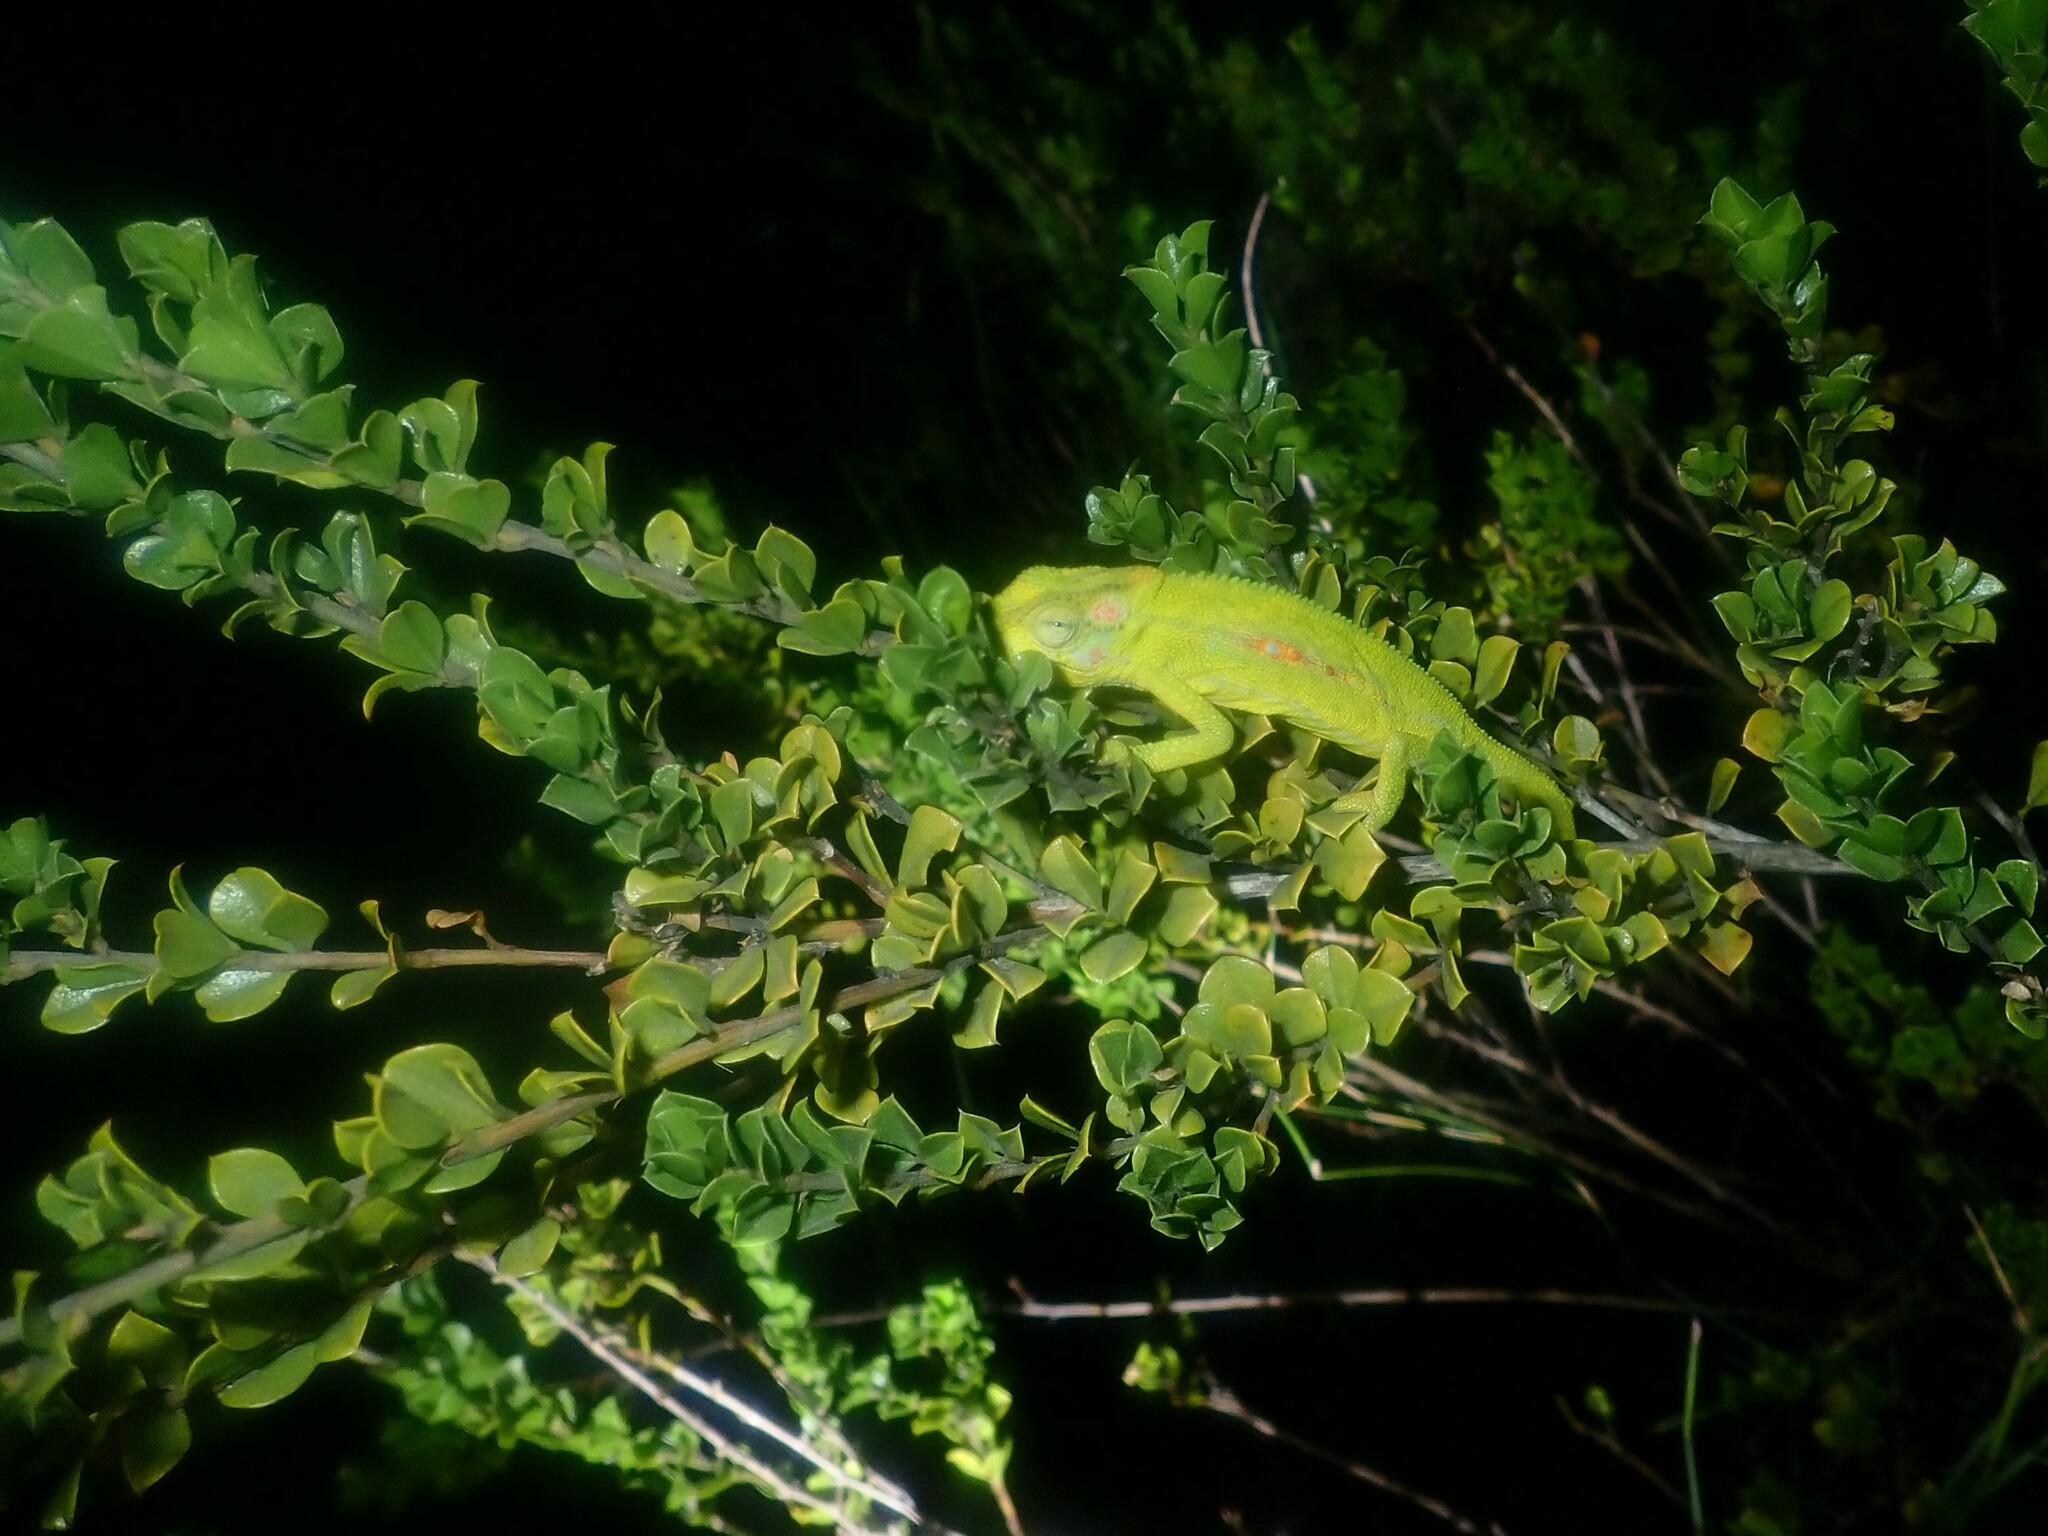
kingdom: Animalia
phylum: Chordata
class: Squamata
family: Chamaeleonidae
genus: Bradypodion
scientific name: Bradypodion pumilum
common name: Cape dwarf chameleon
